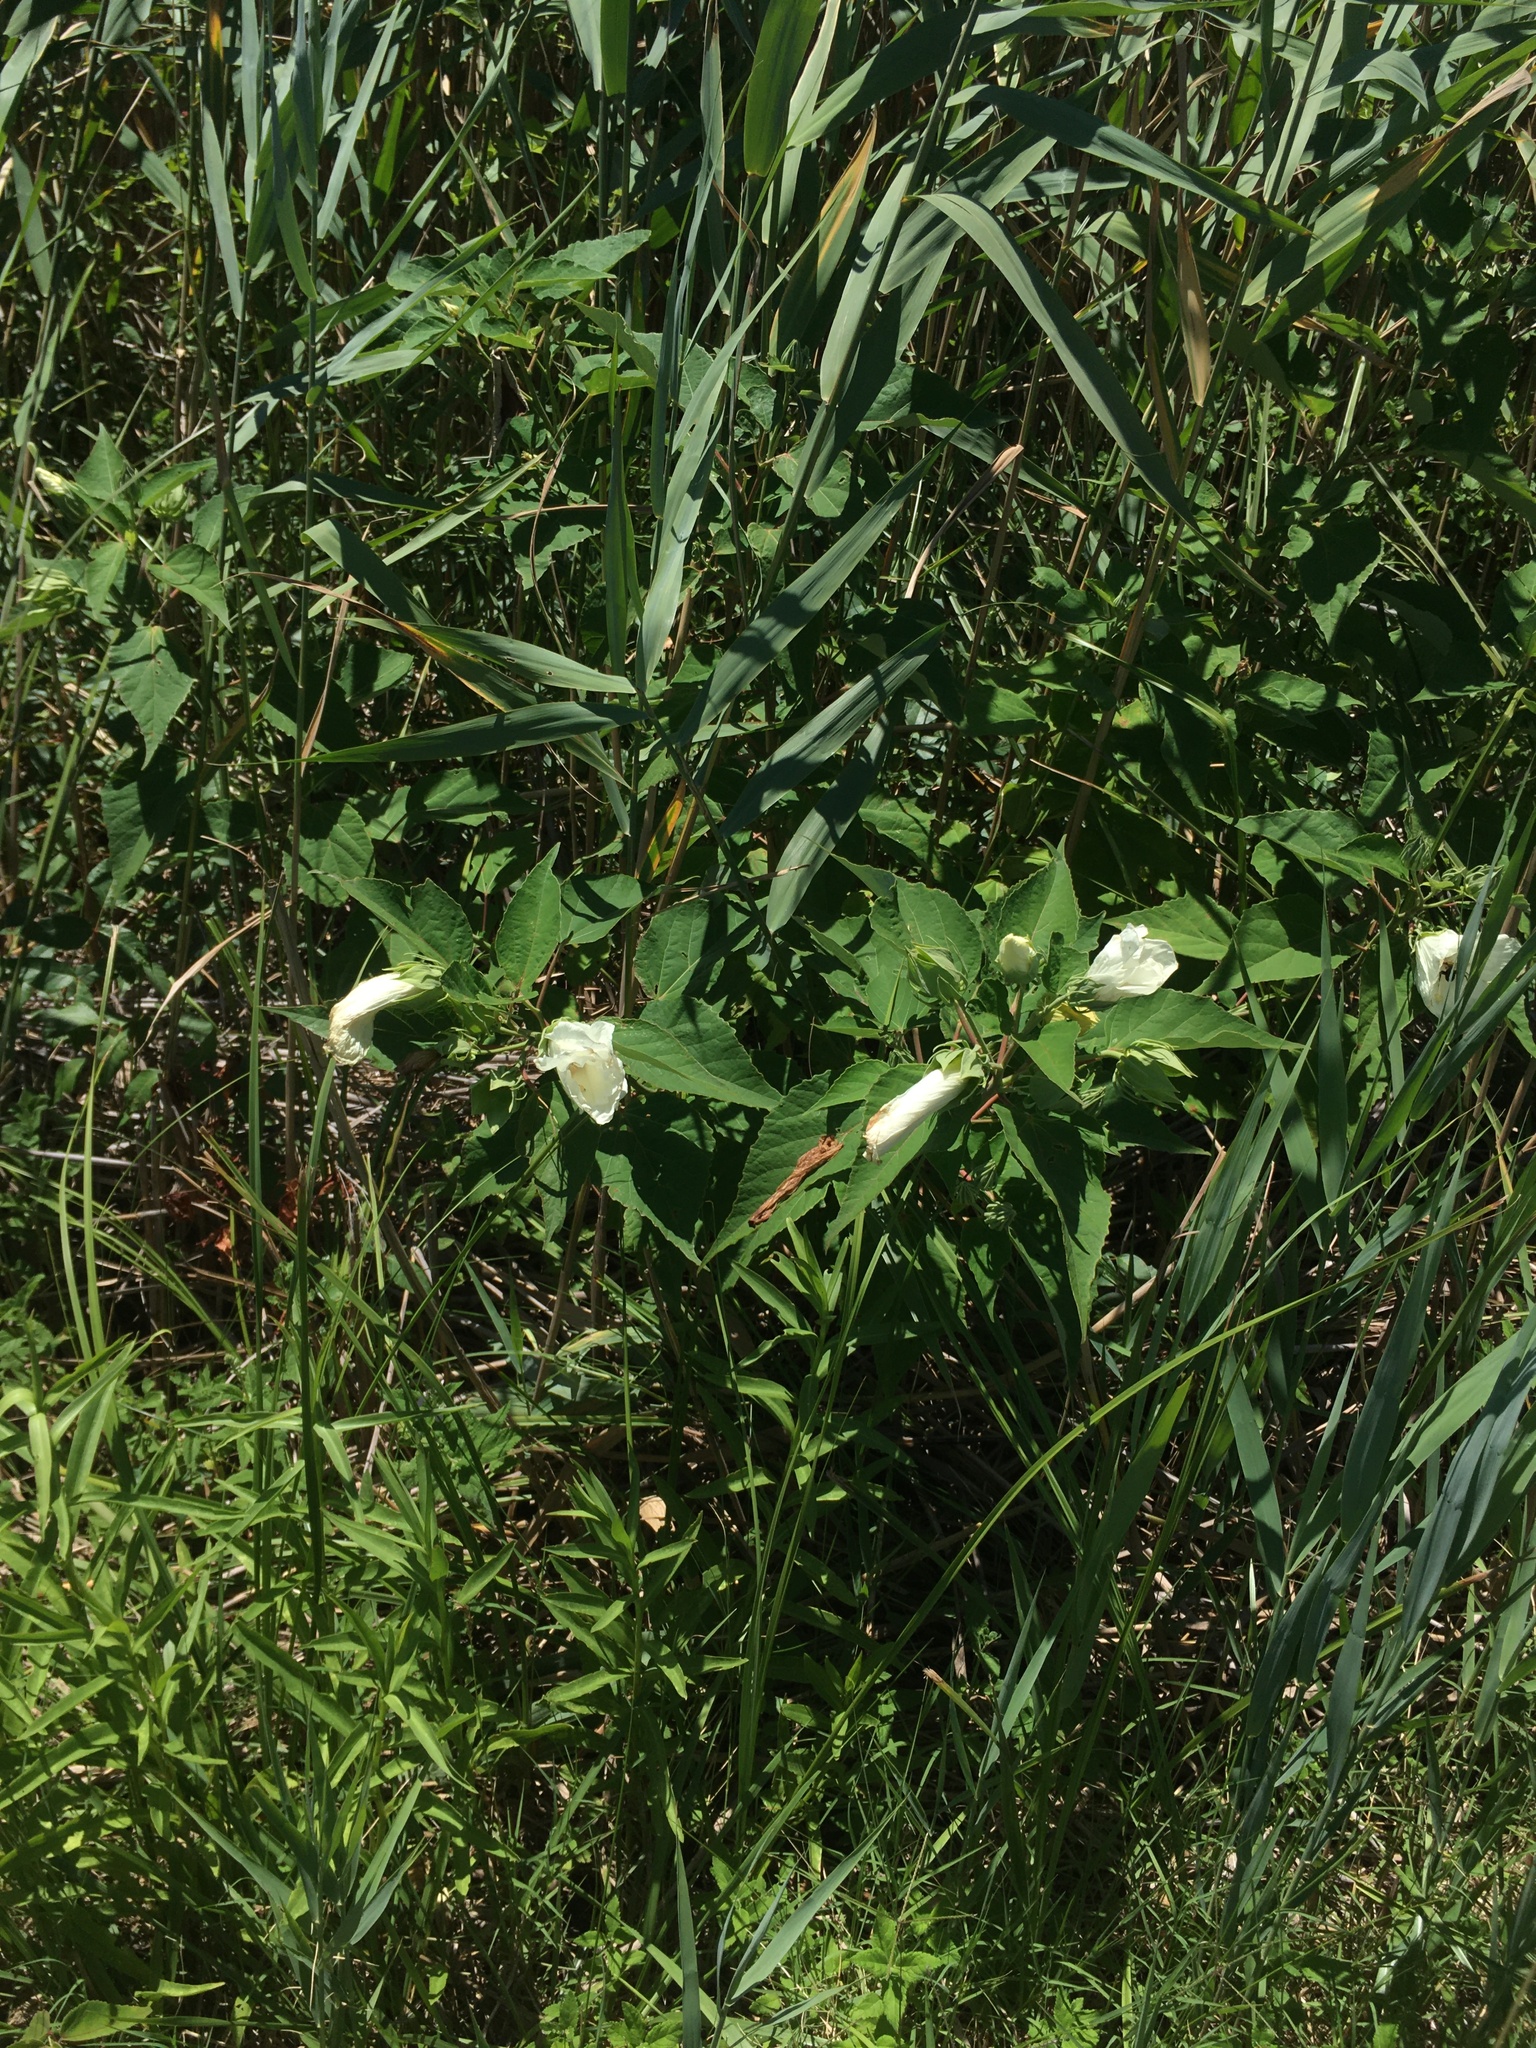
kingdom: Plantae
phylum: Tracheophyta
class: Magnoliopsida
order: Malvales
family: Malvaceae
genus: Hibiscus
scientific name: Hibiscus moscheutos
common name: Common rose-mallow
